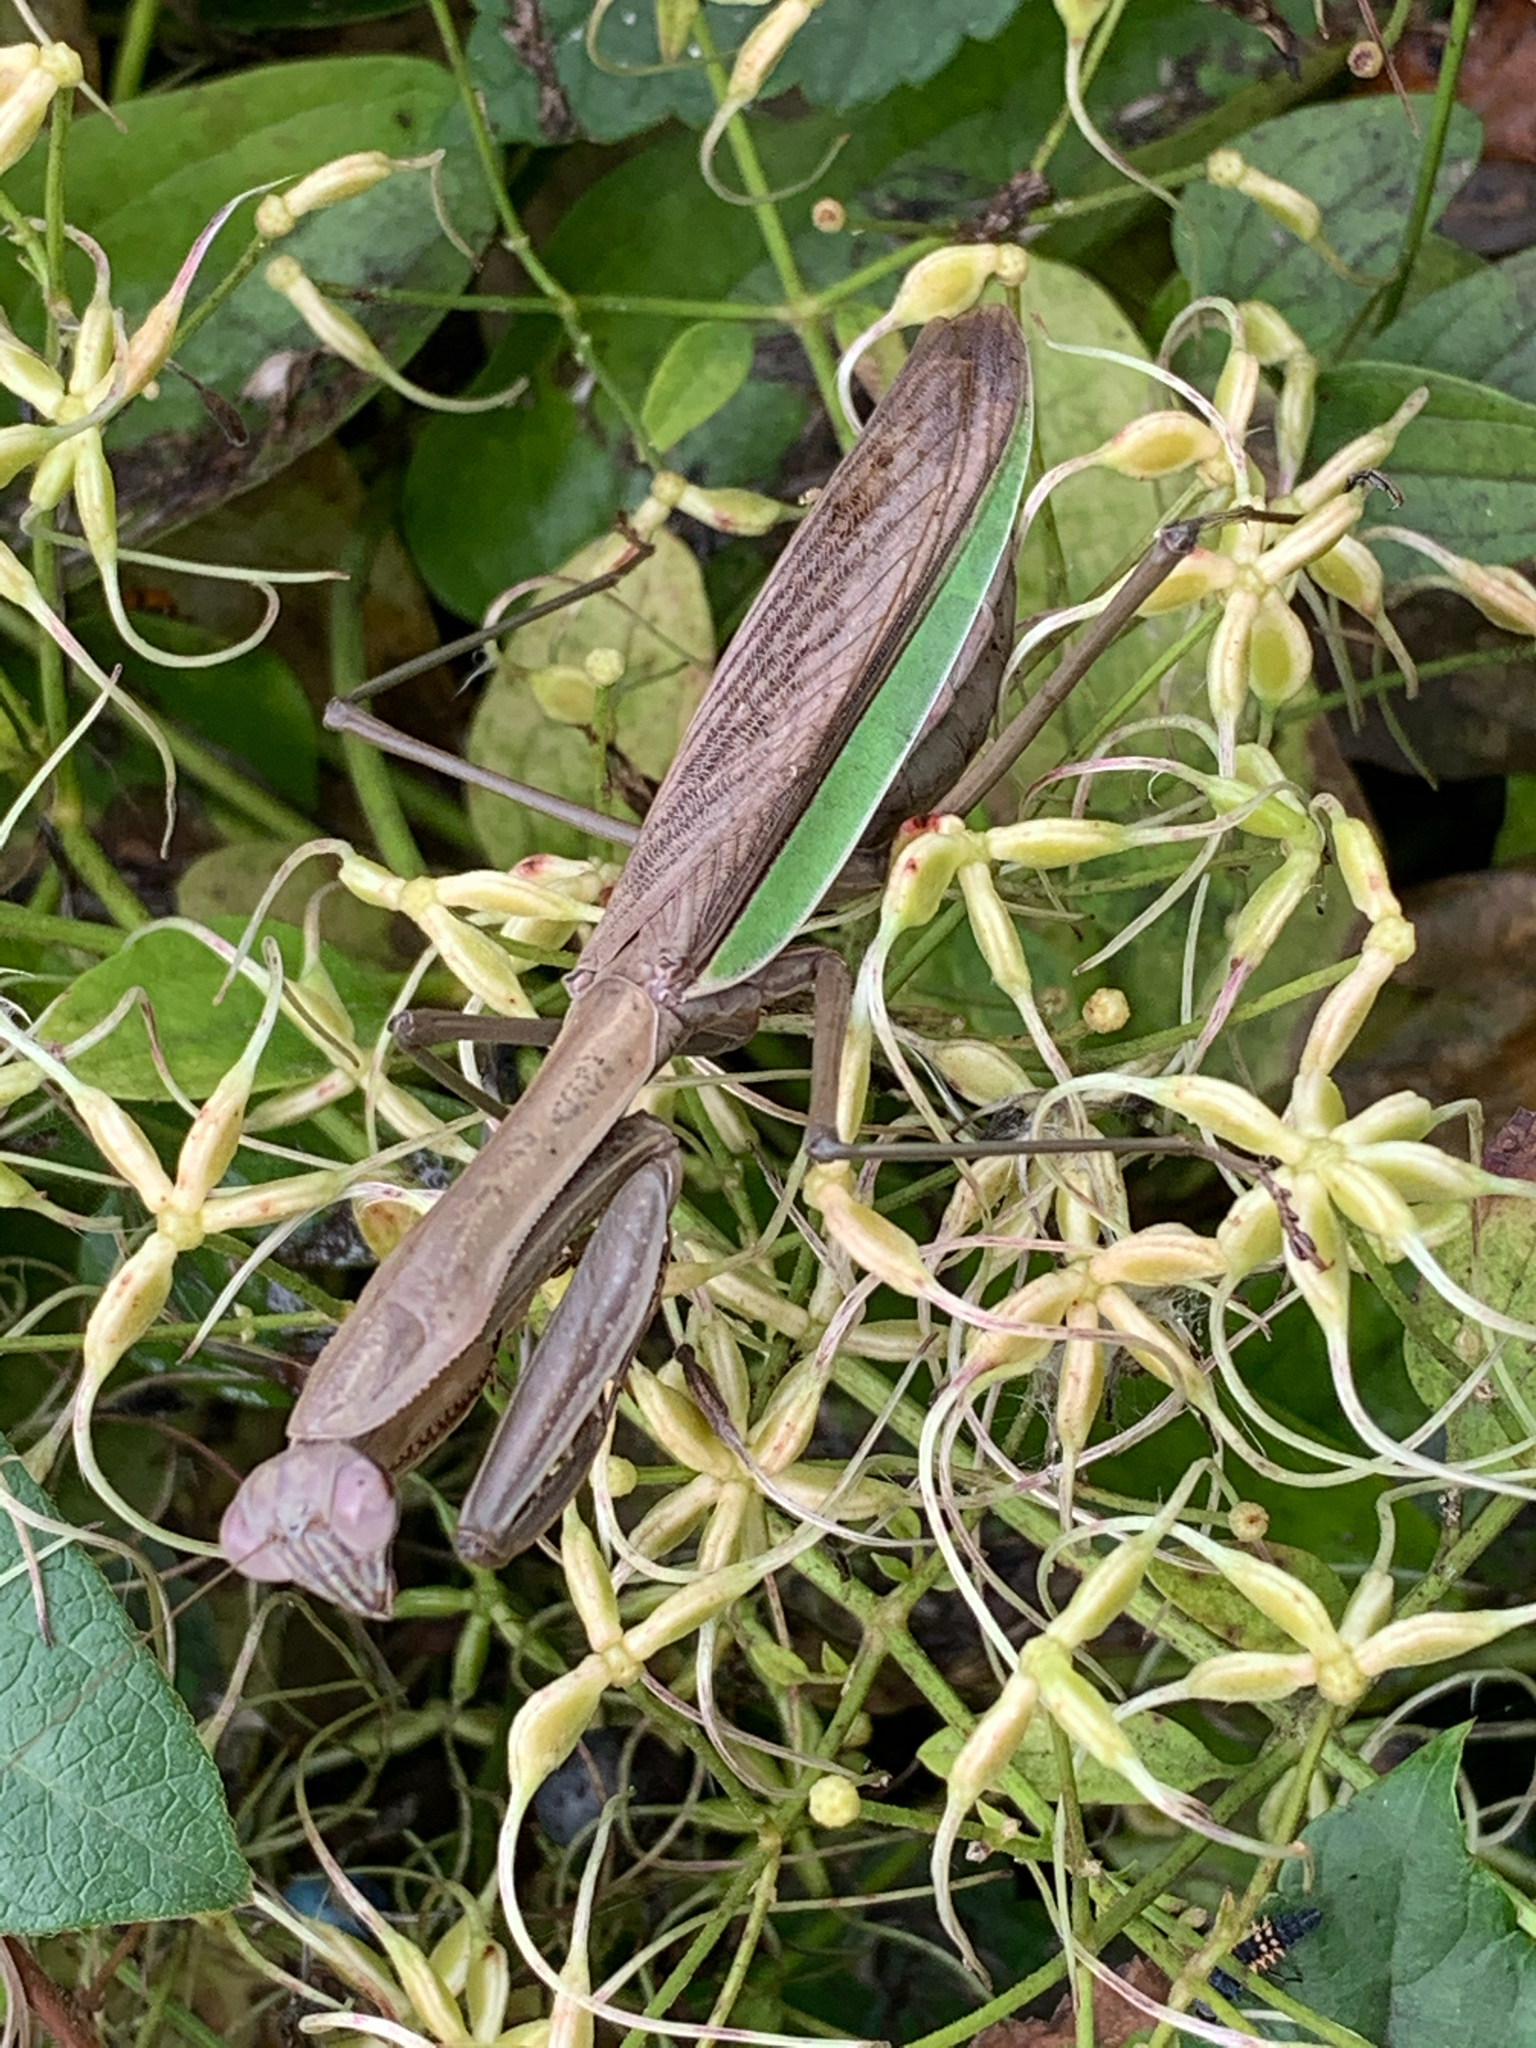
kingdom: Animalia
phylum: Arthropoda
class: Insecta
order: Mantodea
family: Mantidae
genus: Tenodera
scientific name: Tenodera sinensis
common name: Chinese mantis
